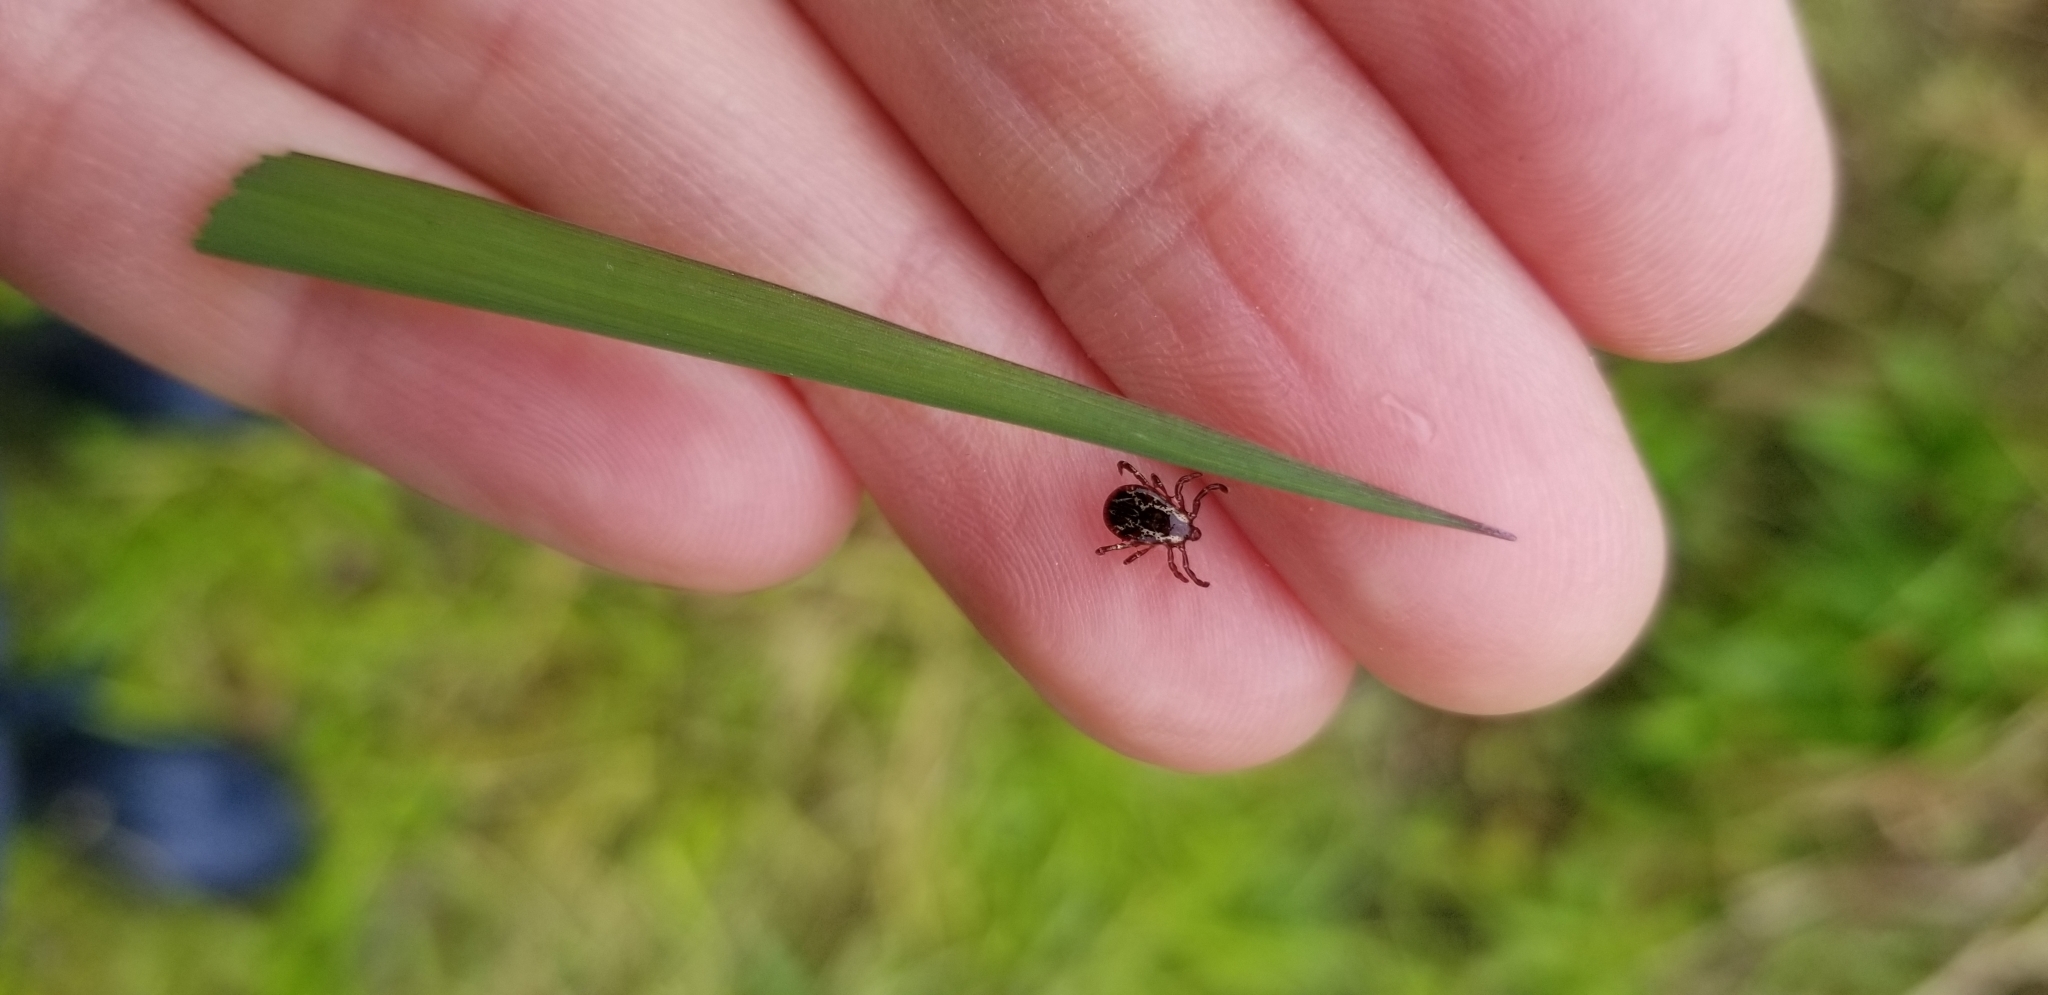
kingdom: Animalia
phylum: Arthropoda
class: Arachnida
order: Ixodida
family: Ixodidae
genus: Dermacentor
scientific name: Dermacentor variabilis
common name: American dog tick
